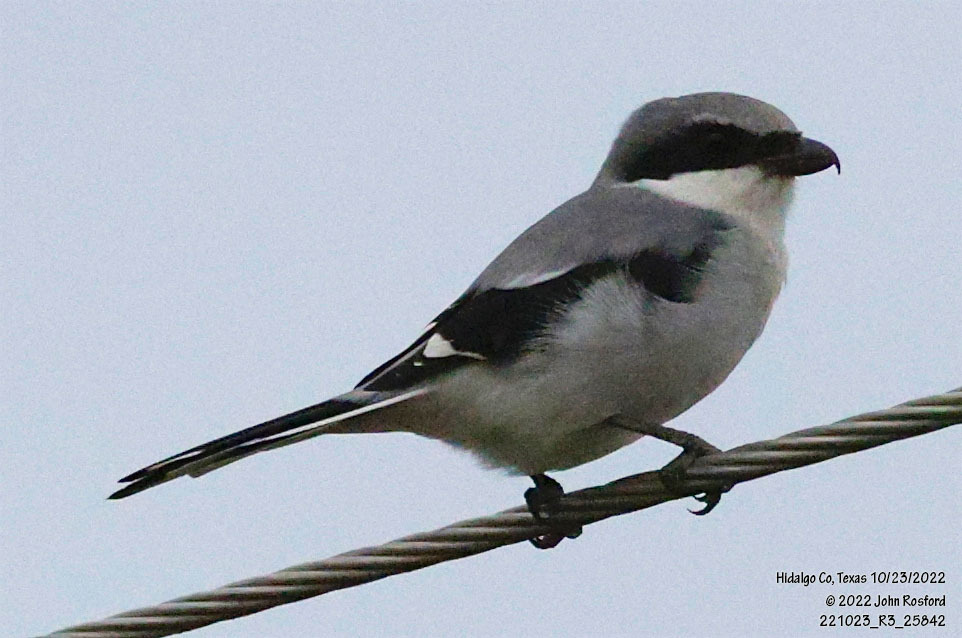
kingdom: Animalia
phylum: Chordata
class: Aves
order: Passeriformes
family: Laniidae
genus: Lanius
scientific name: Lanius ludovicianus
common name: Loggerhead shrike
